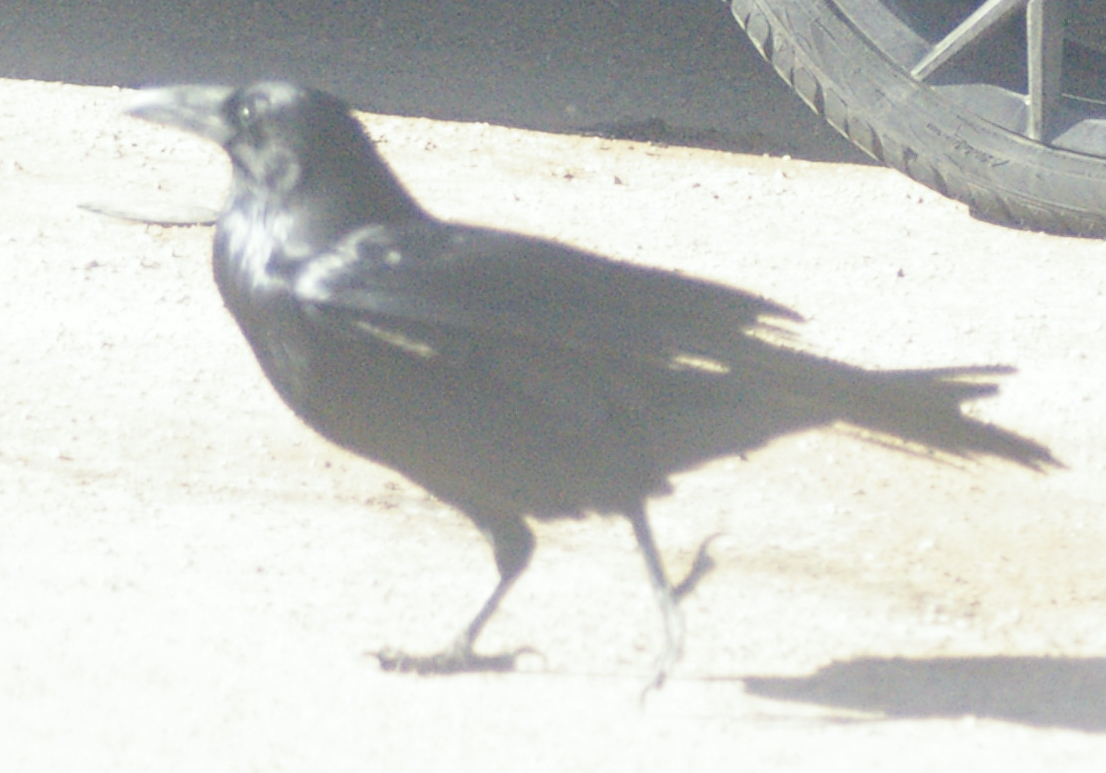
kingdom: Animalia
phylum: Chordata
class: Aves
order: Passeriformes
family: Corvidae
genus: Corvus
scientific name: Corvus corax
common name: Common raven
